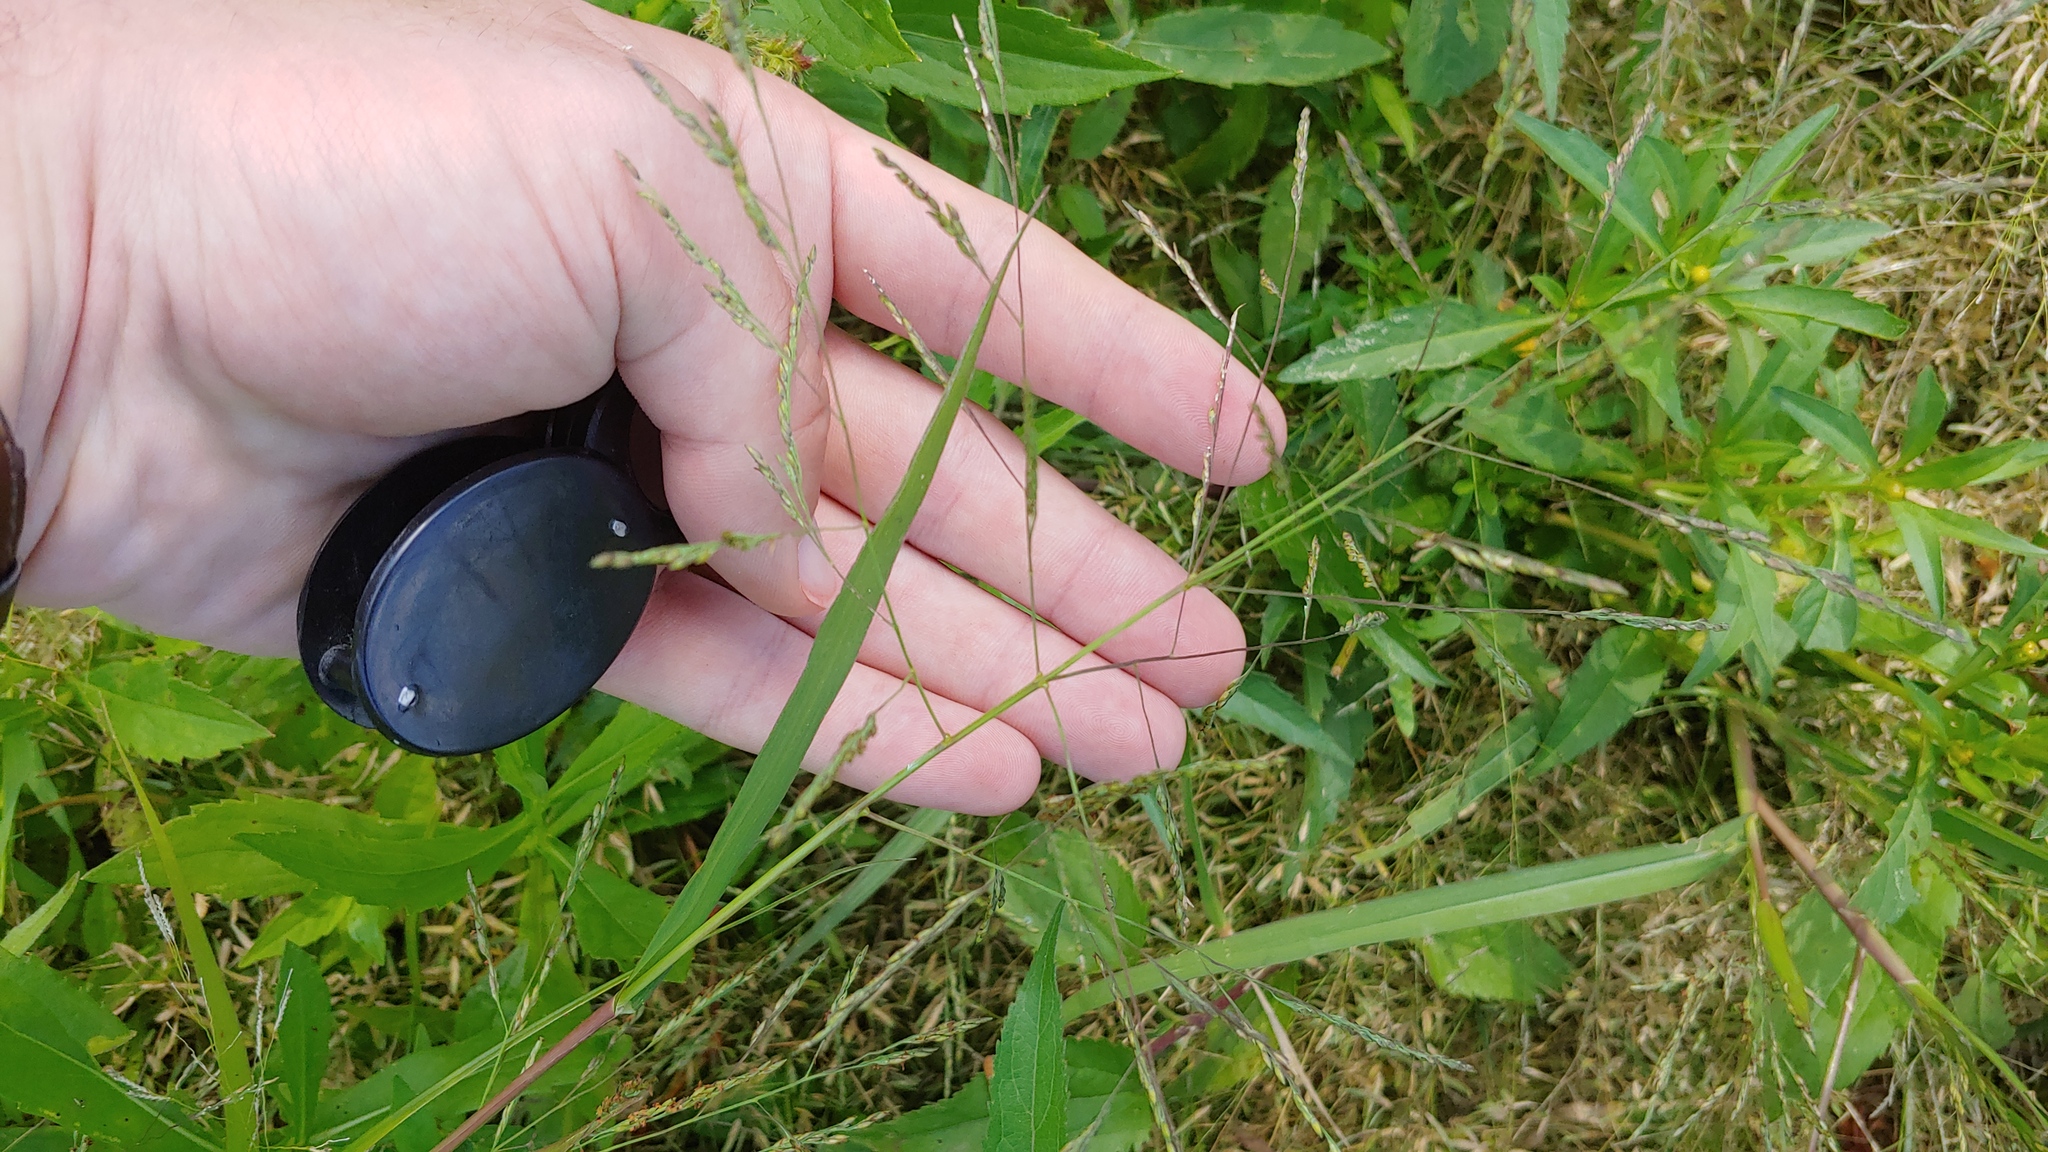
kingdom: Plantae
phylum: Tracheophyta
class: Liliopsida
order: Poales
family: Poaceae
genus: Panicum
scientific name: Panicum dichotomiflorum
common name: Autumn millet
